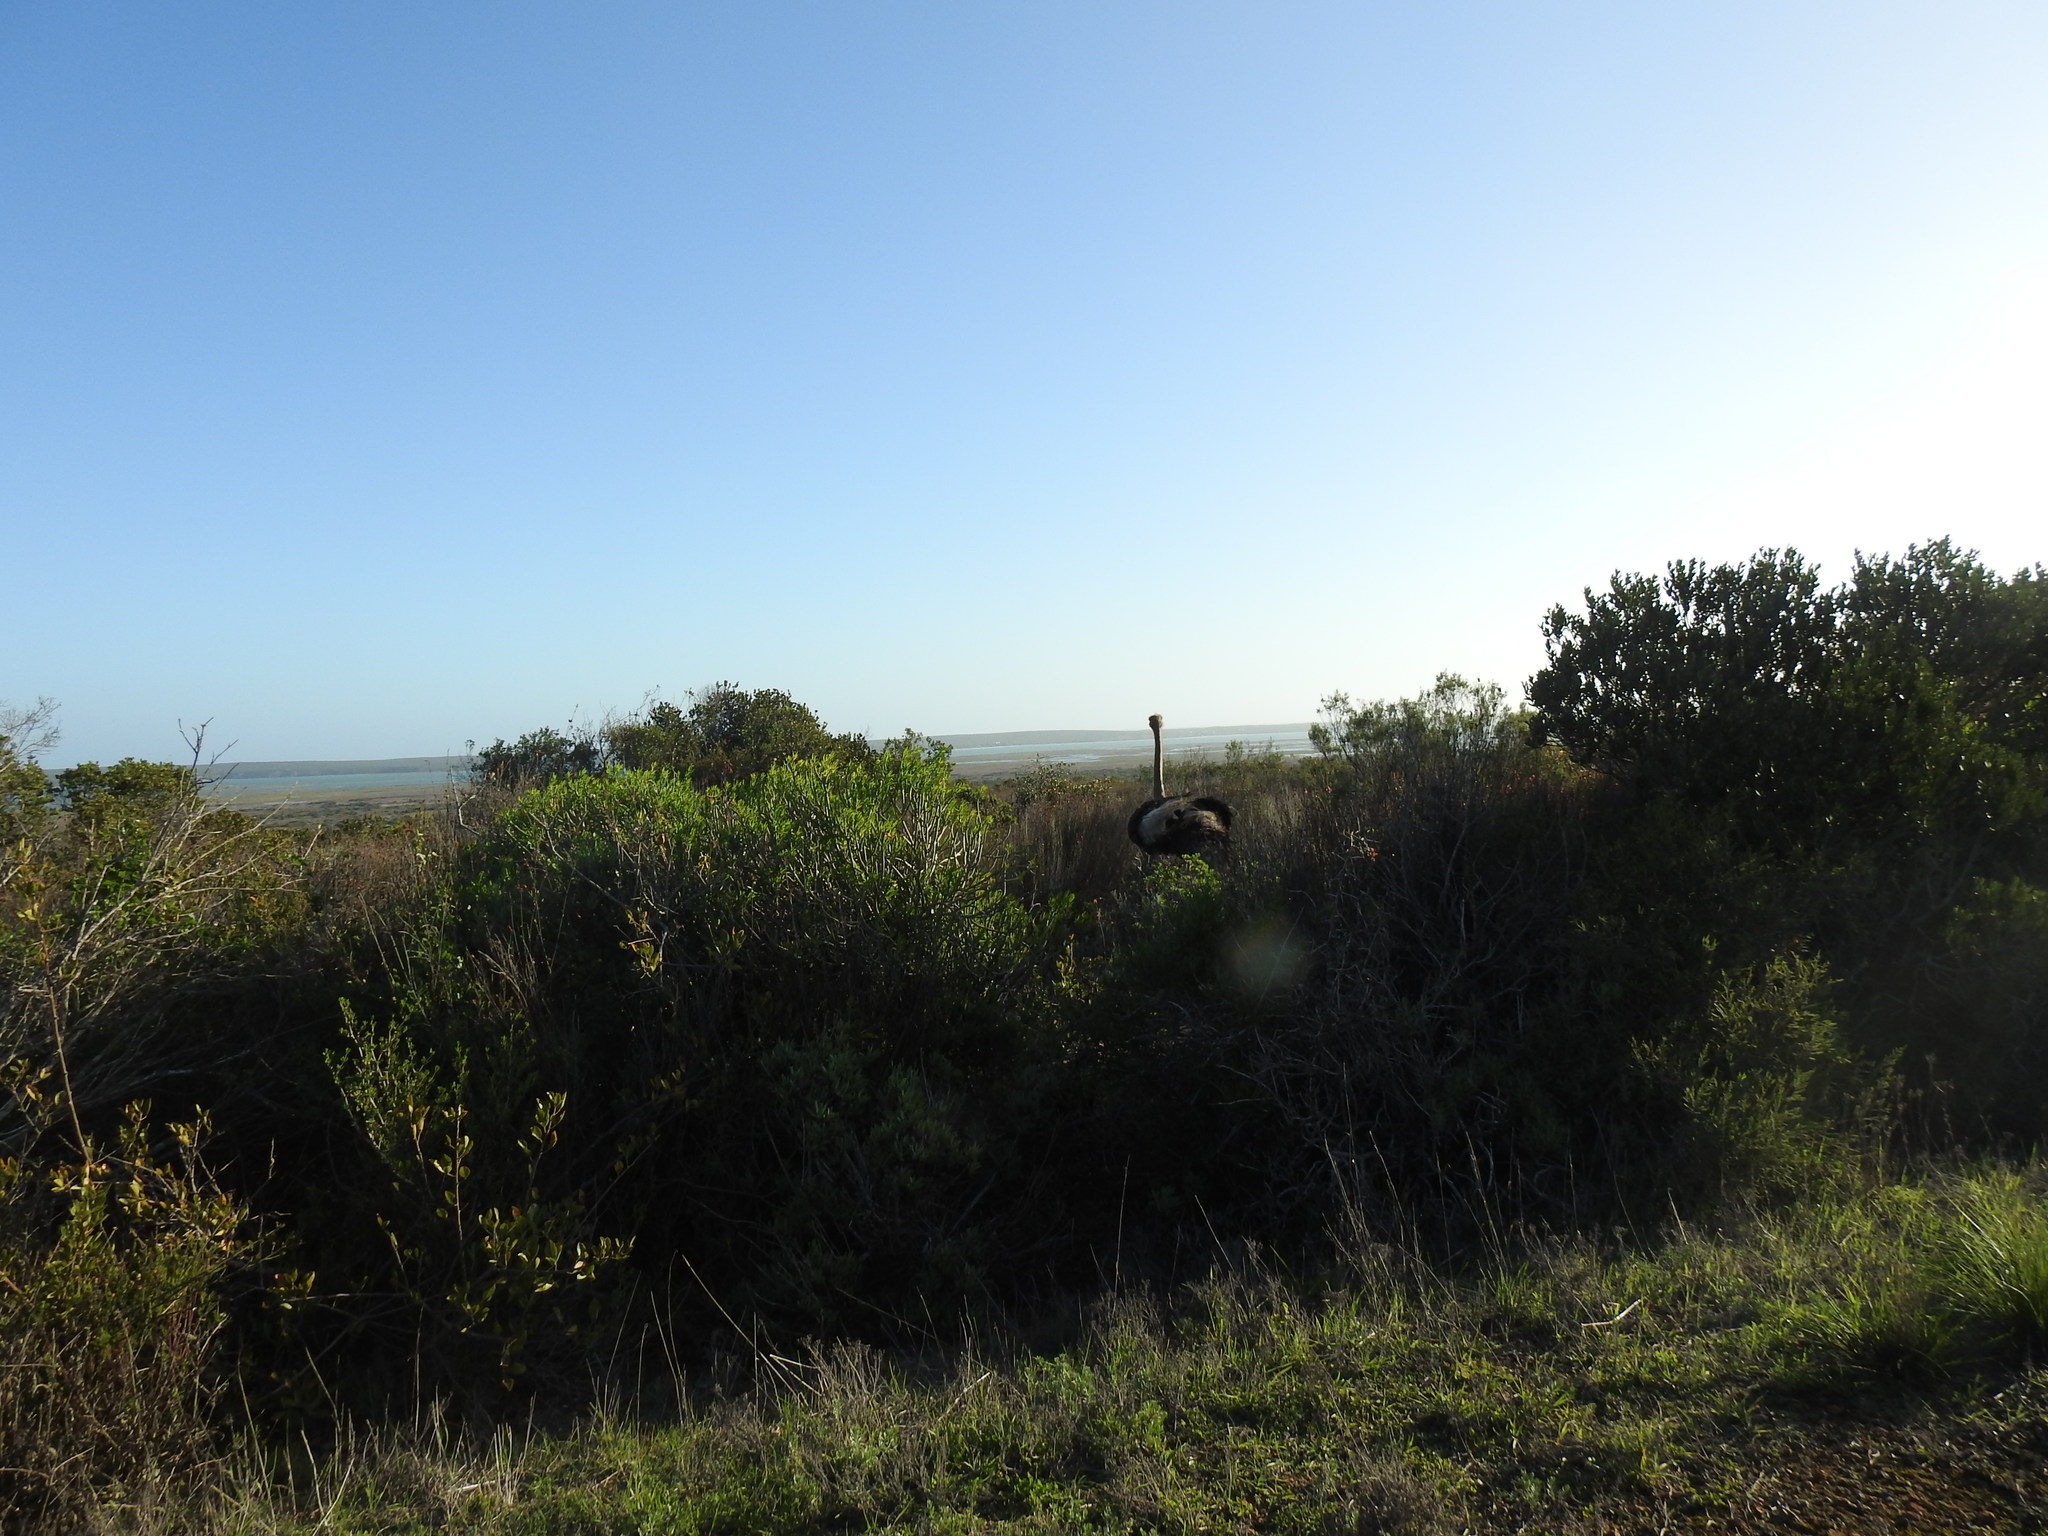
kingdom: Animalia
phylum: Chordata
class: Aves
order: Struthioniformes
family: Struthionidae
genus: Struthio
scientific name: Struthio camelus
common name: Common ostrich
